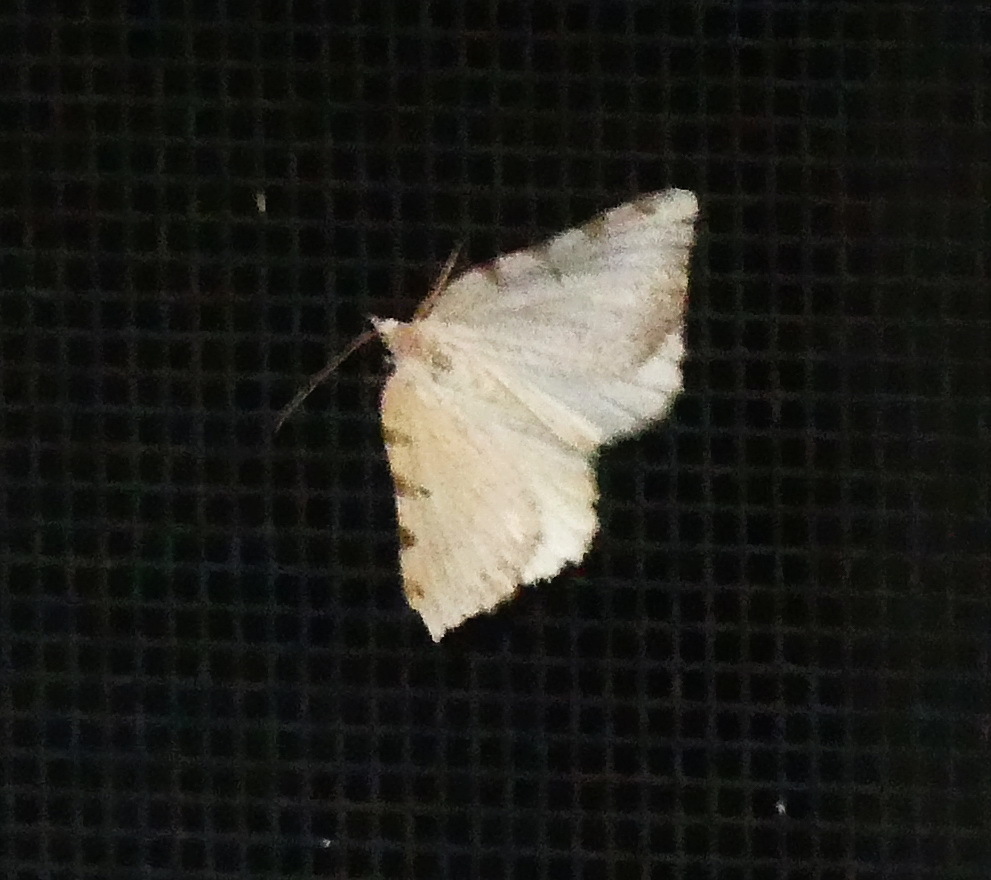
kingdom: Animalia
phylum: Arthropoda
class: Insecta
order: Lepidoptera
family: Geometridae
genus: Macaria
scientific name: Macaria coortaria
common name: Four-spotted granite
